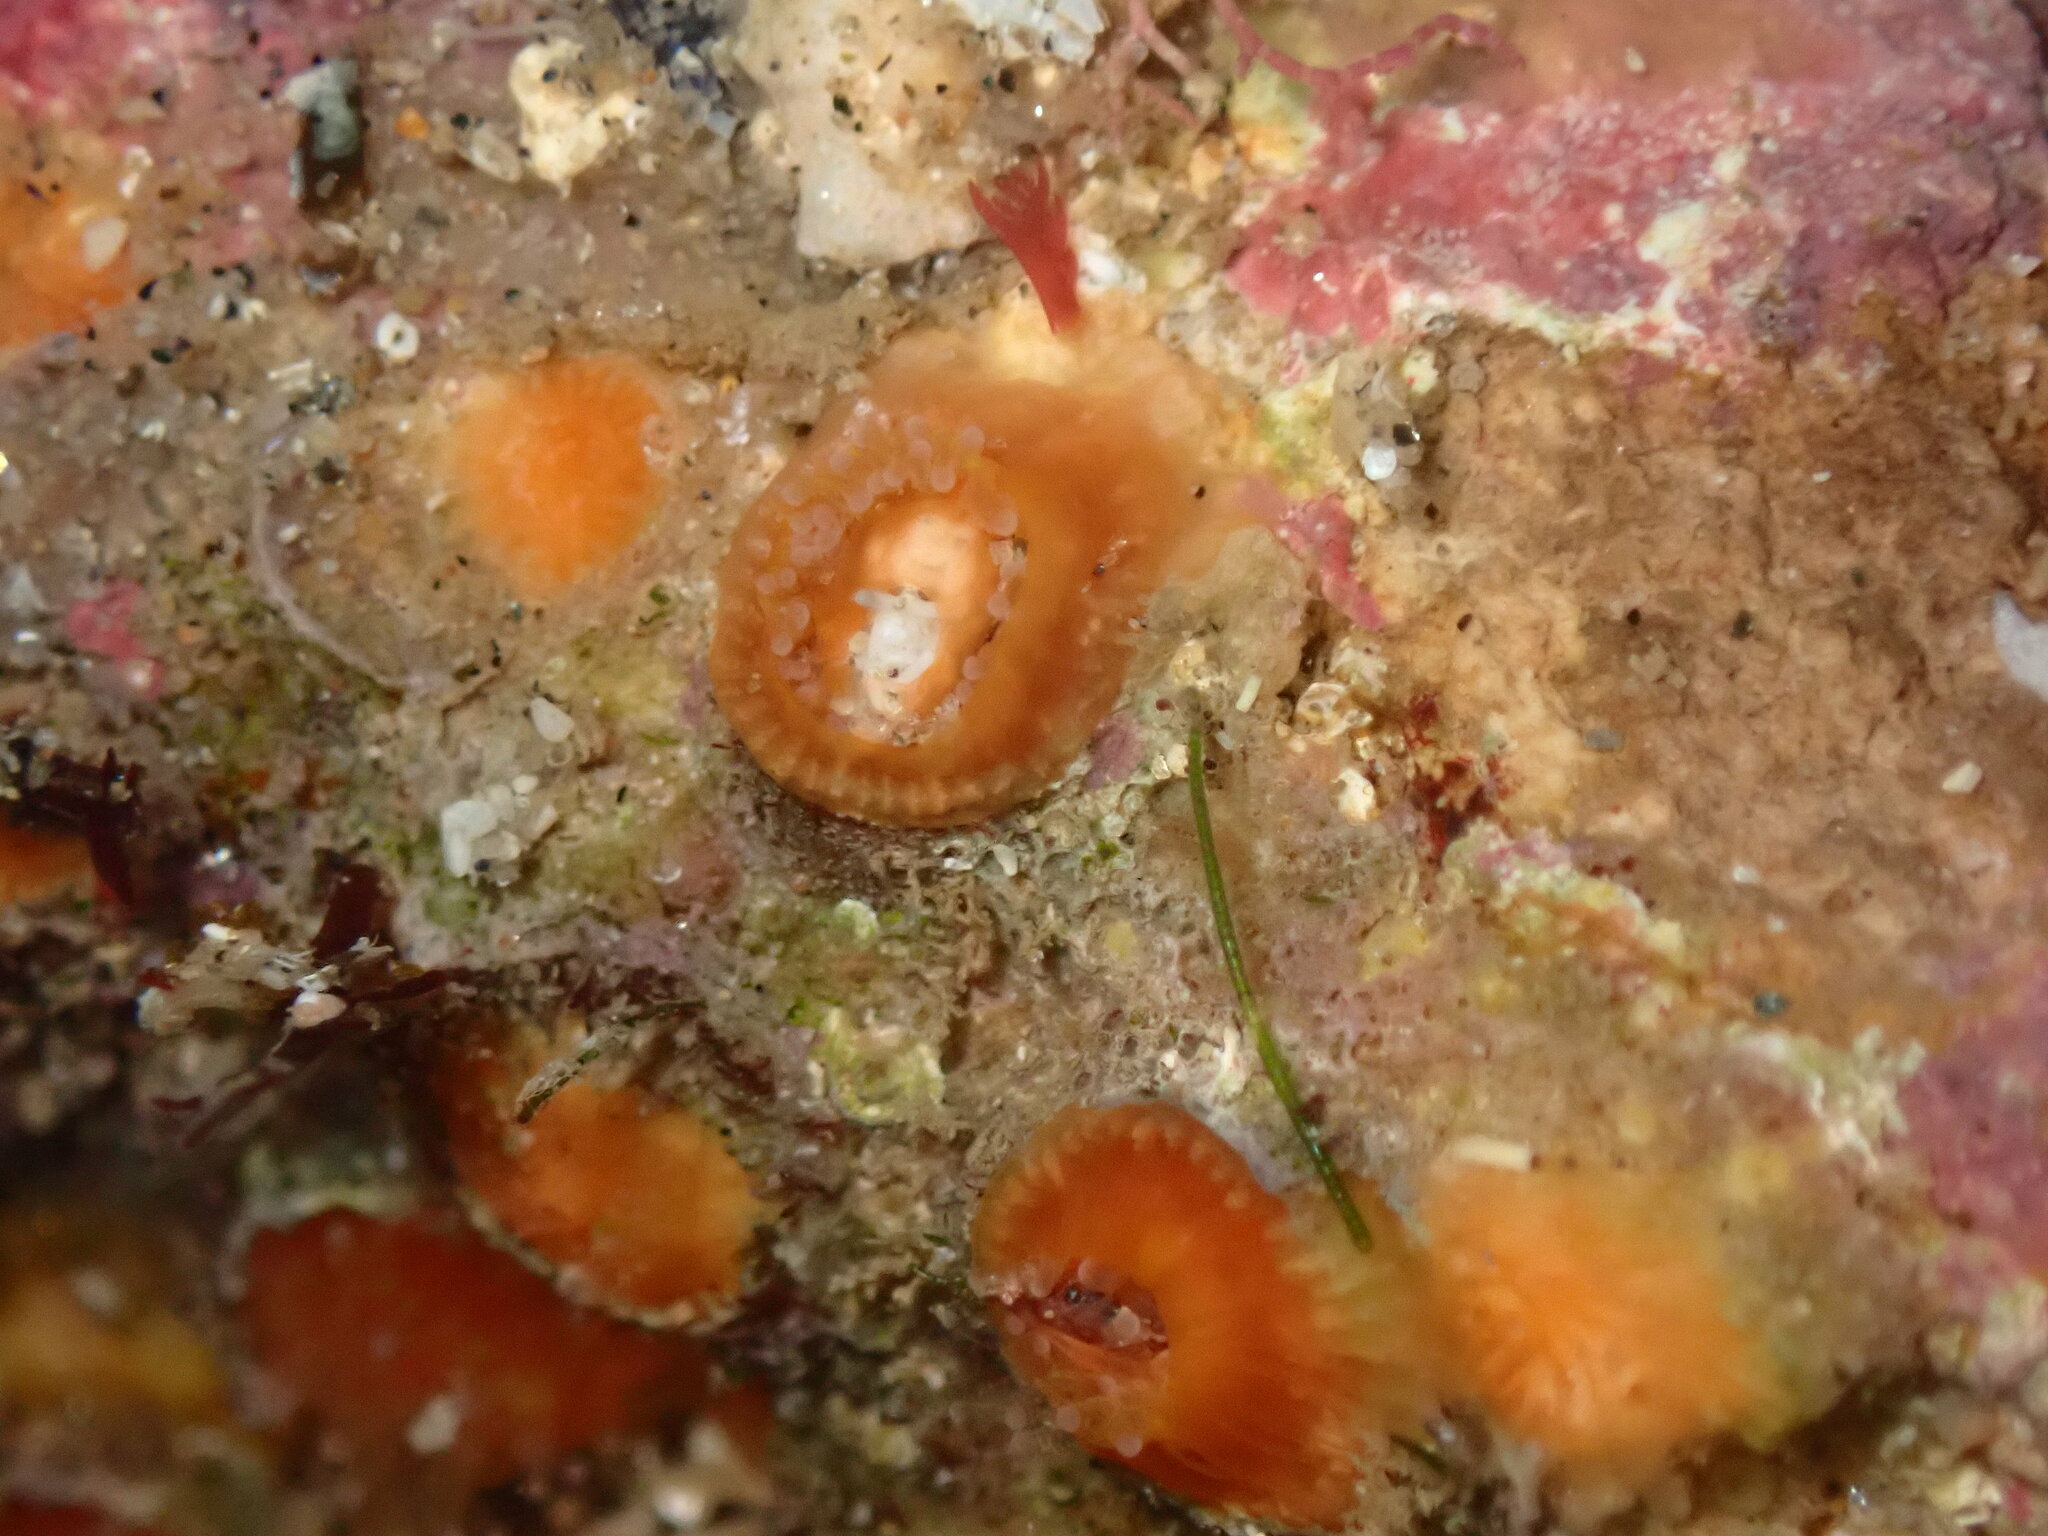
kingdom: Animalia
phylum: Cnidaria
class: Anthozoa
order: Scleractinia
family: Astrangiidae
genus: Astrangia
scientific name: Astrangia haimei
